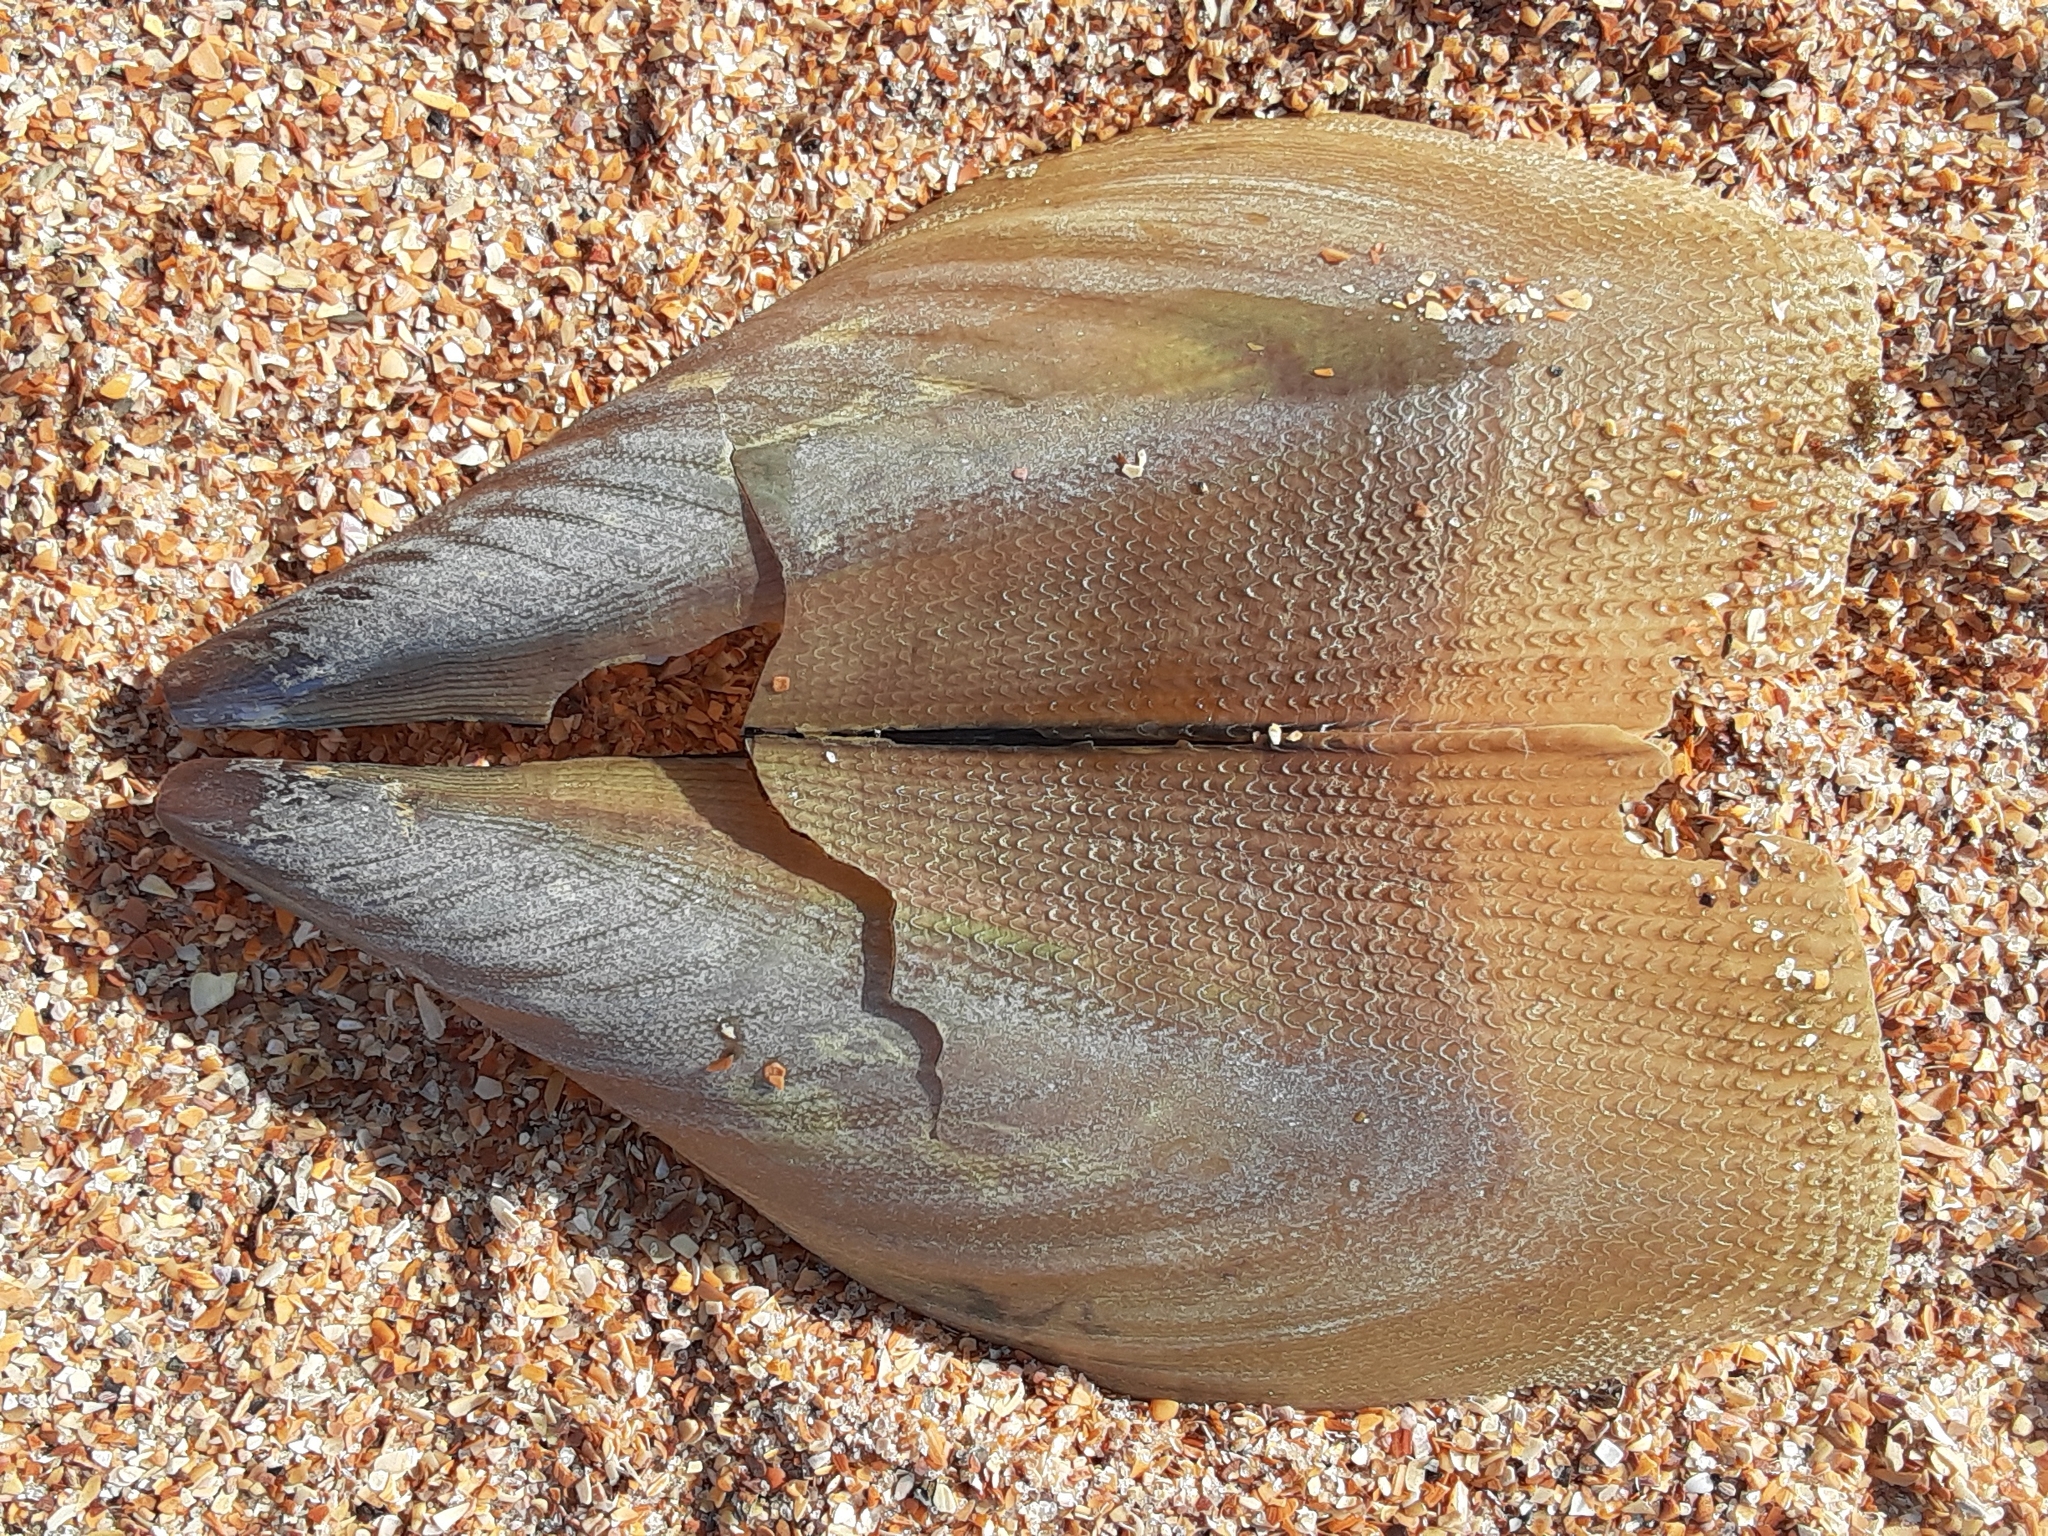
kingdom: Animalia
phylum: Mollusca
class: Bivalvia
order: Ostreida
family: Pinnidae
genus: Atrina
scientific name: Atrina serrata
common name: Saw-toothed penshell
